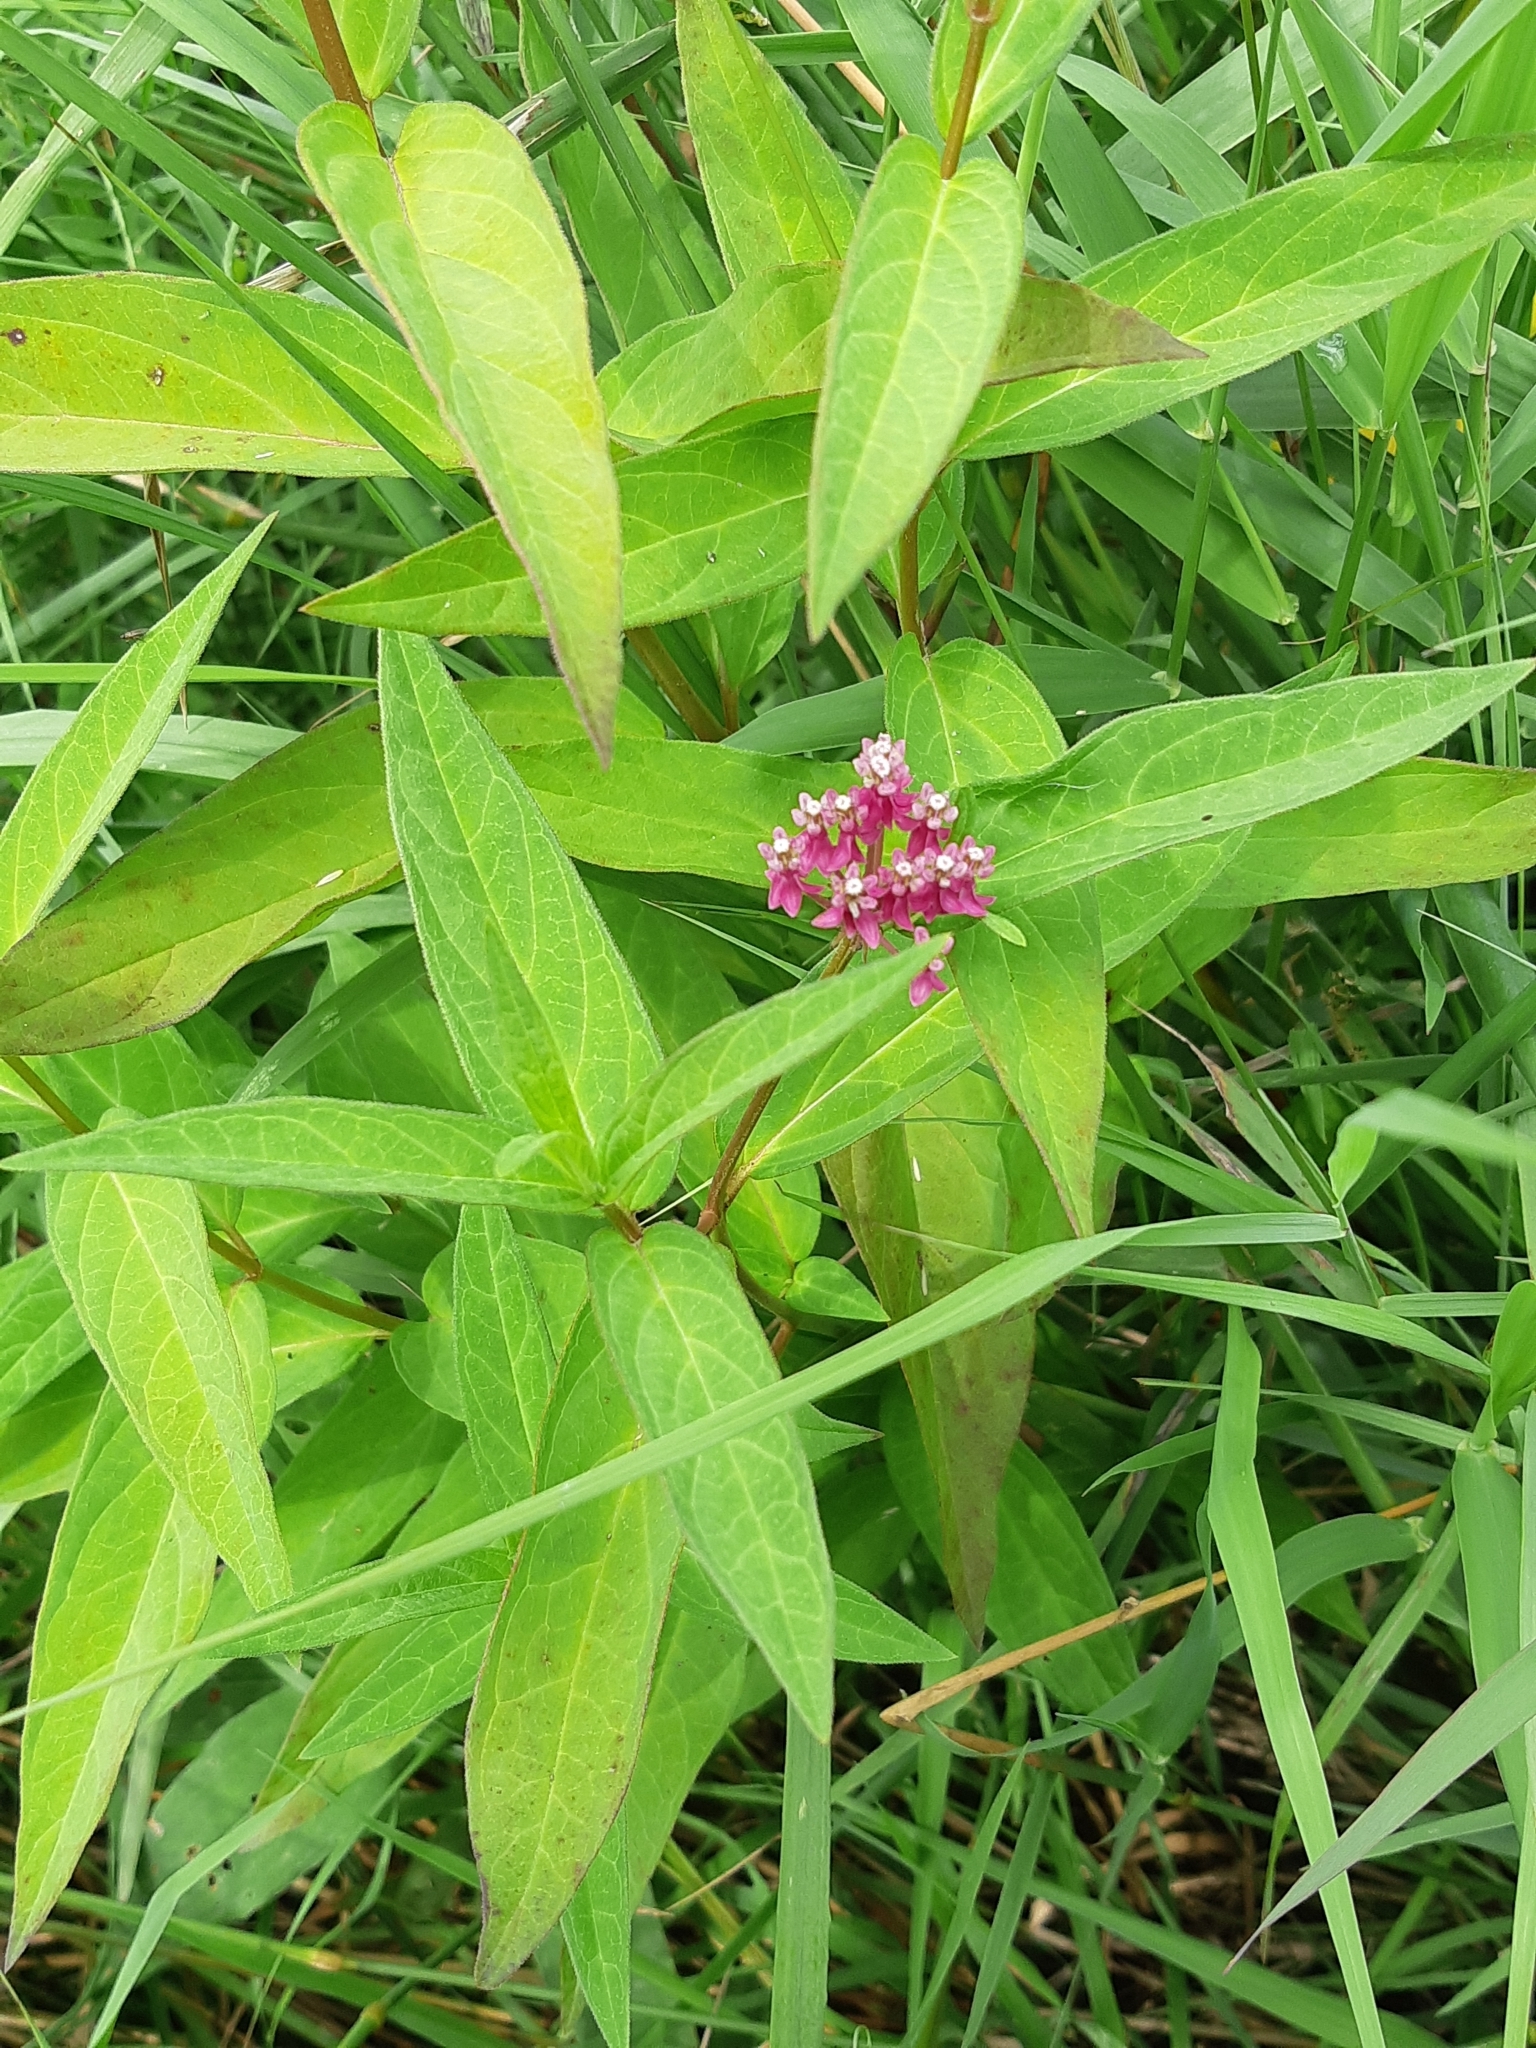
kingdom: Plantae
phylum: Tracheophyta
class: Magnoliopsida
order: Gentianales
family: Apocynaceae
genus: Asclepias
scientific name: Asclepias incarnata
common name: Swamp milkweed
